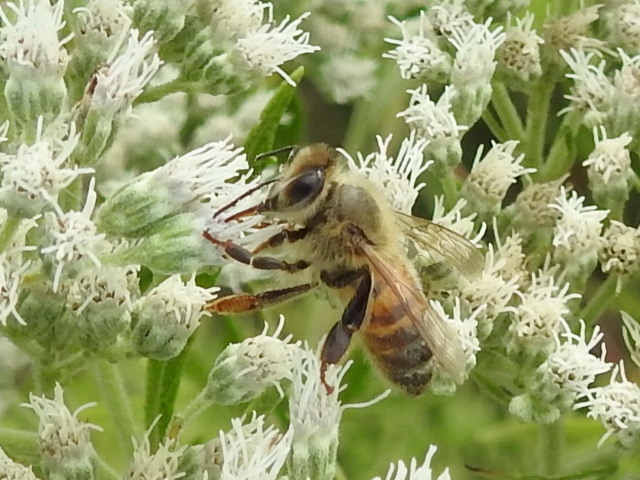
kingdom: Animalia
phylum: Arthropoda
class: Insecta
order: Hymenoptera
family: Apidae
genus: Apis
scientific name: Apis mellifera
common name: Honey bee
